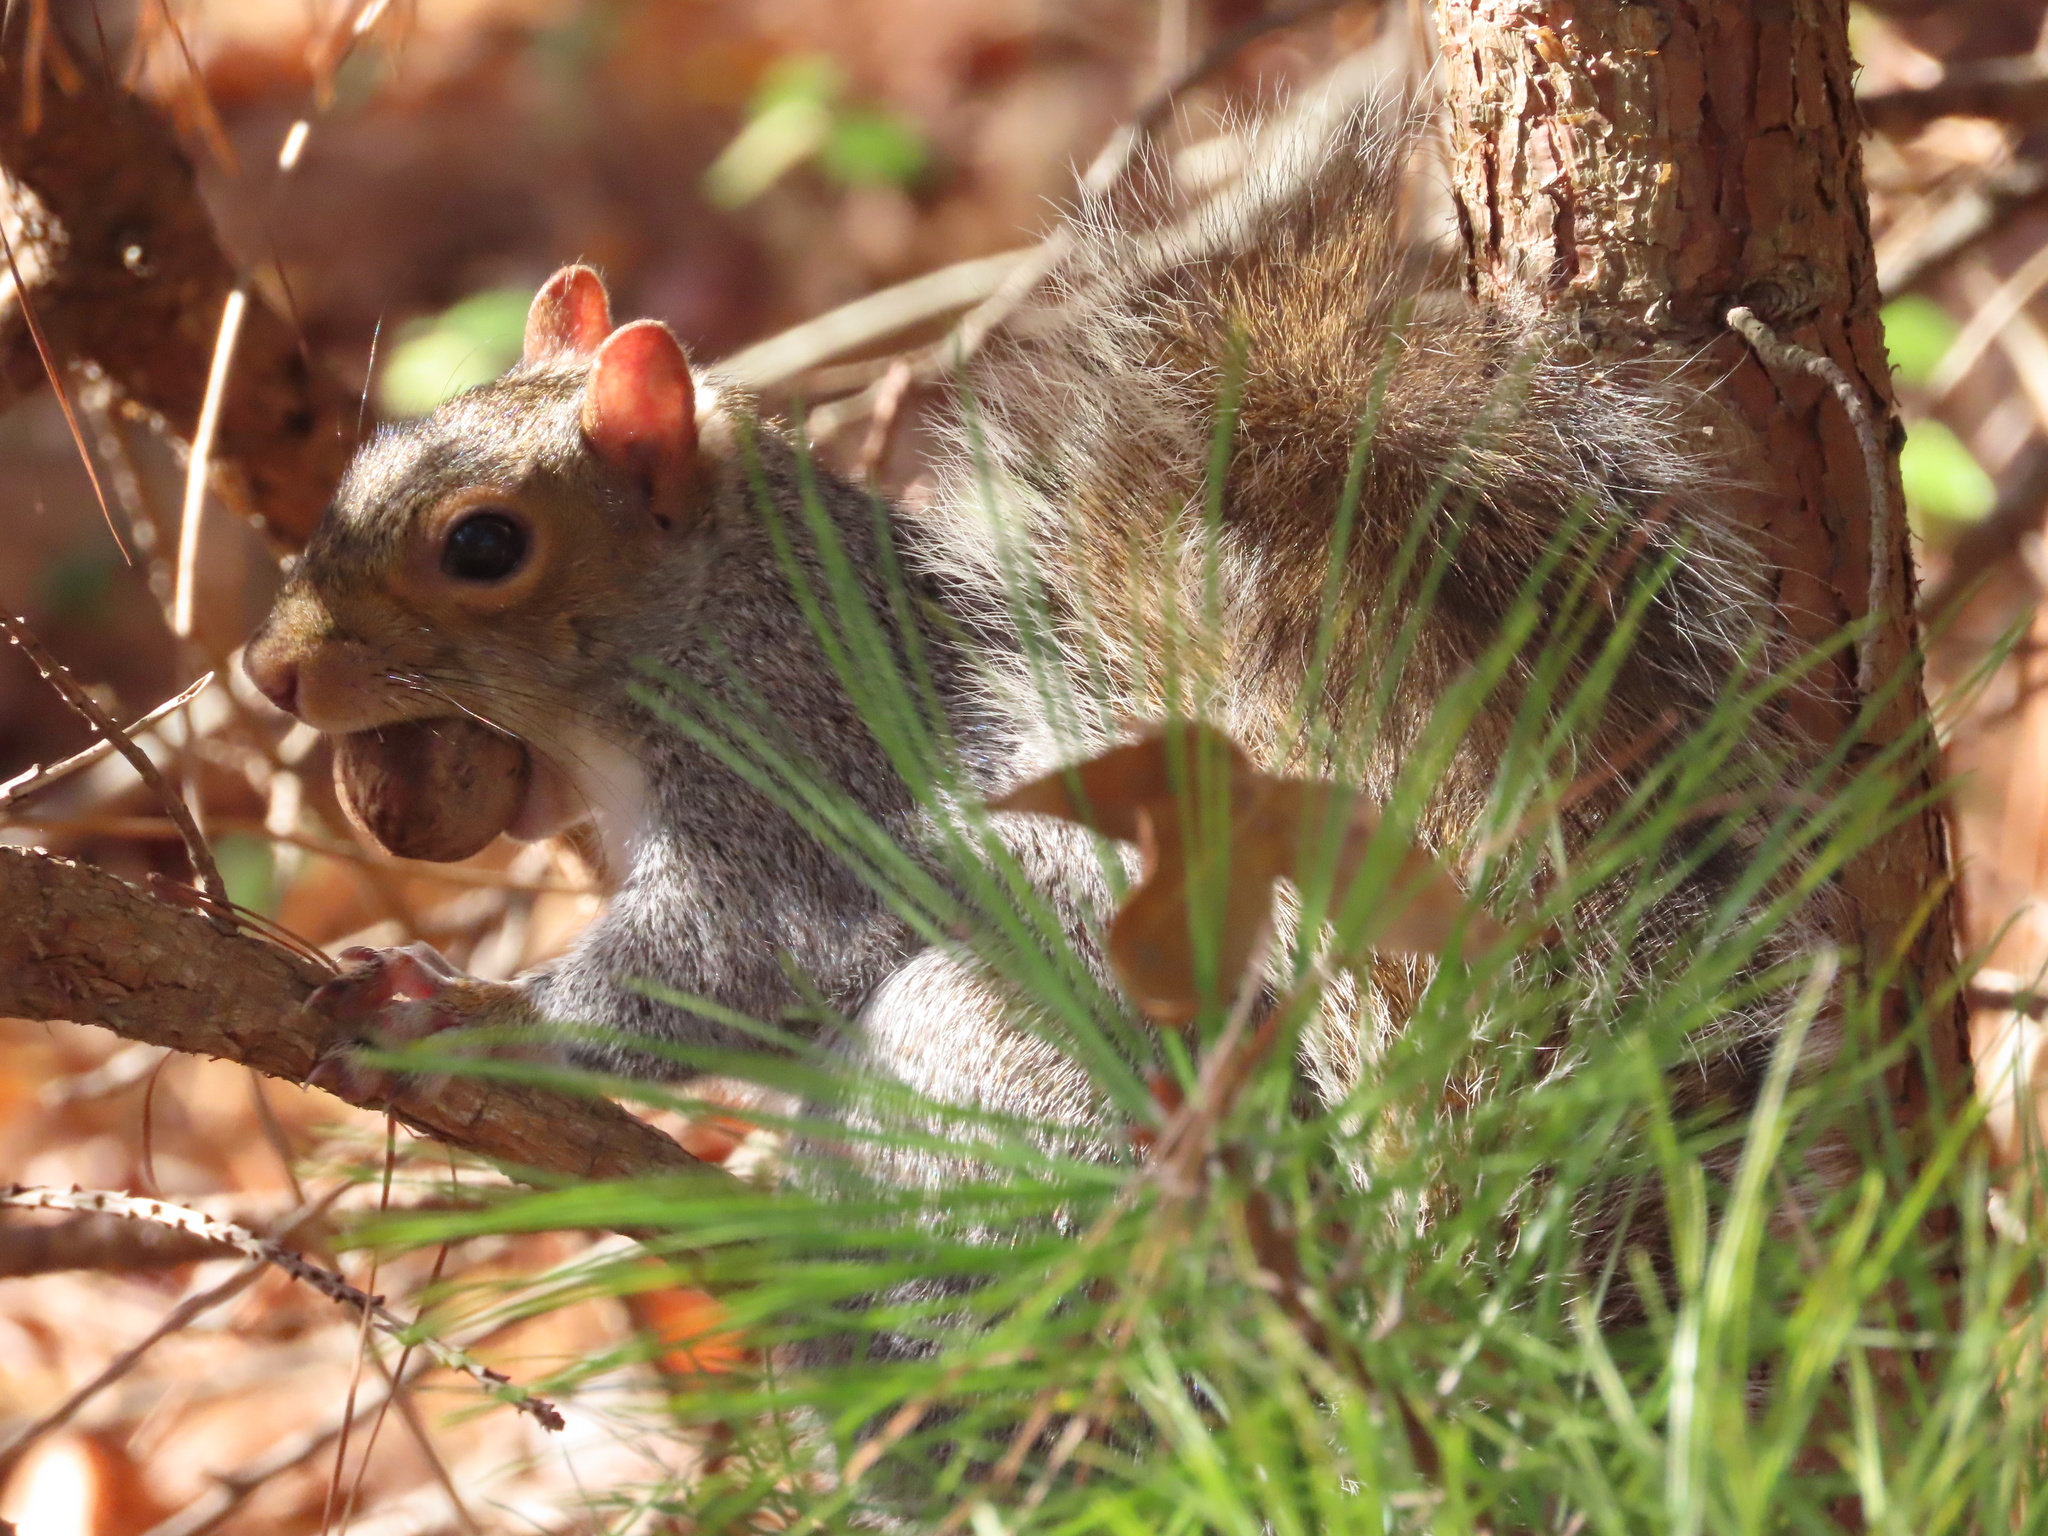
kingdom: Animalia
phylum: Chordata
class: Mammalia
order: Rodentia
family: Sciuridae
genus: Sciurus
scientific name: Sciurus carolinensis
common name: Eastern gray squirrel
